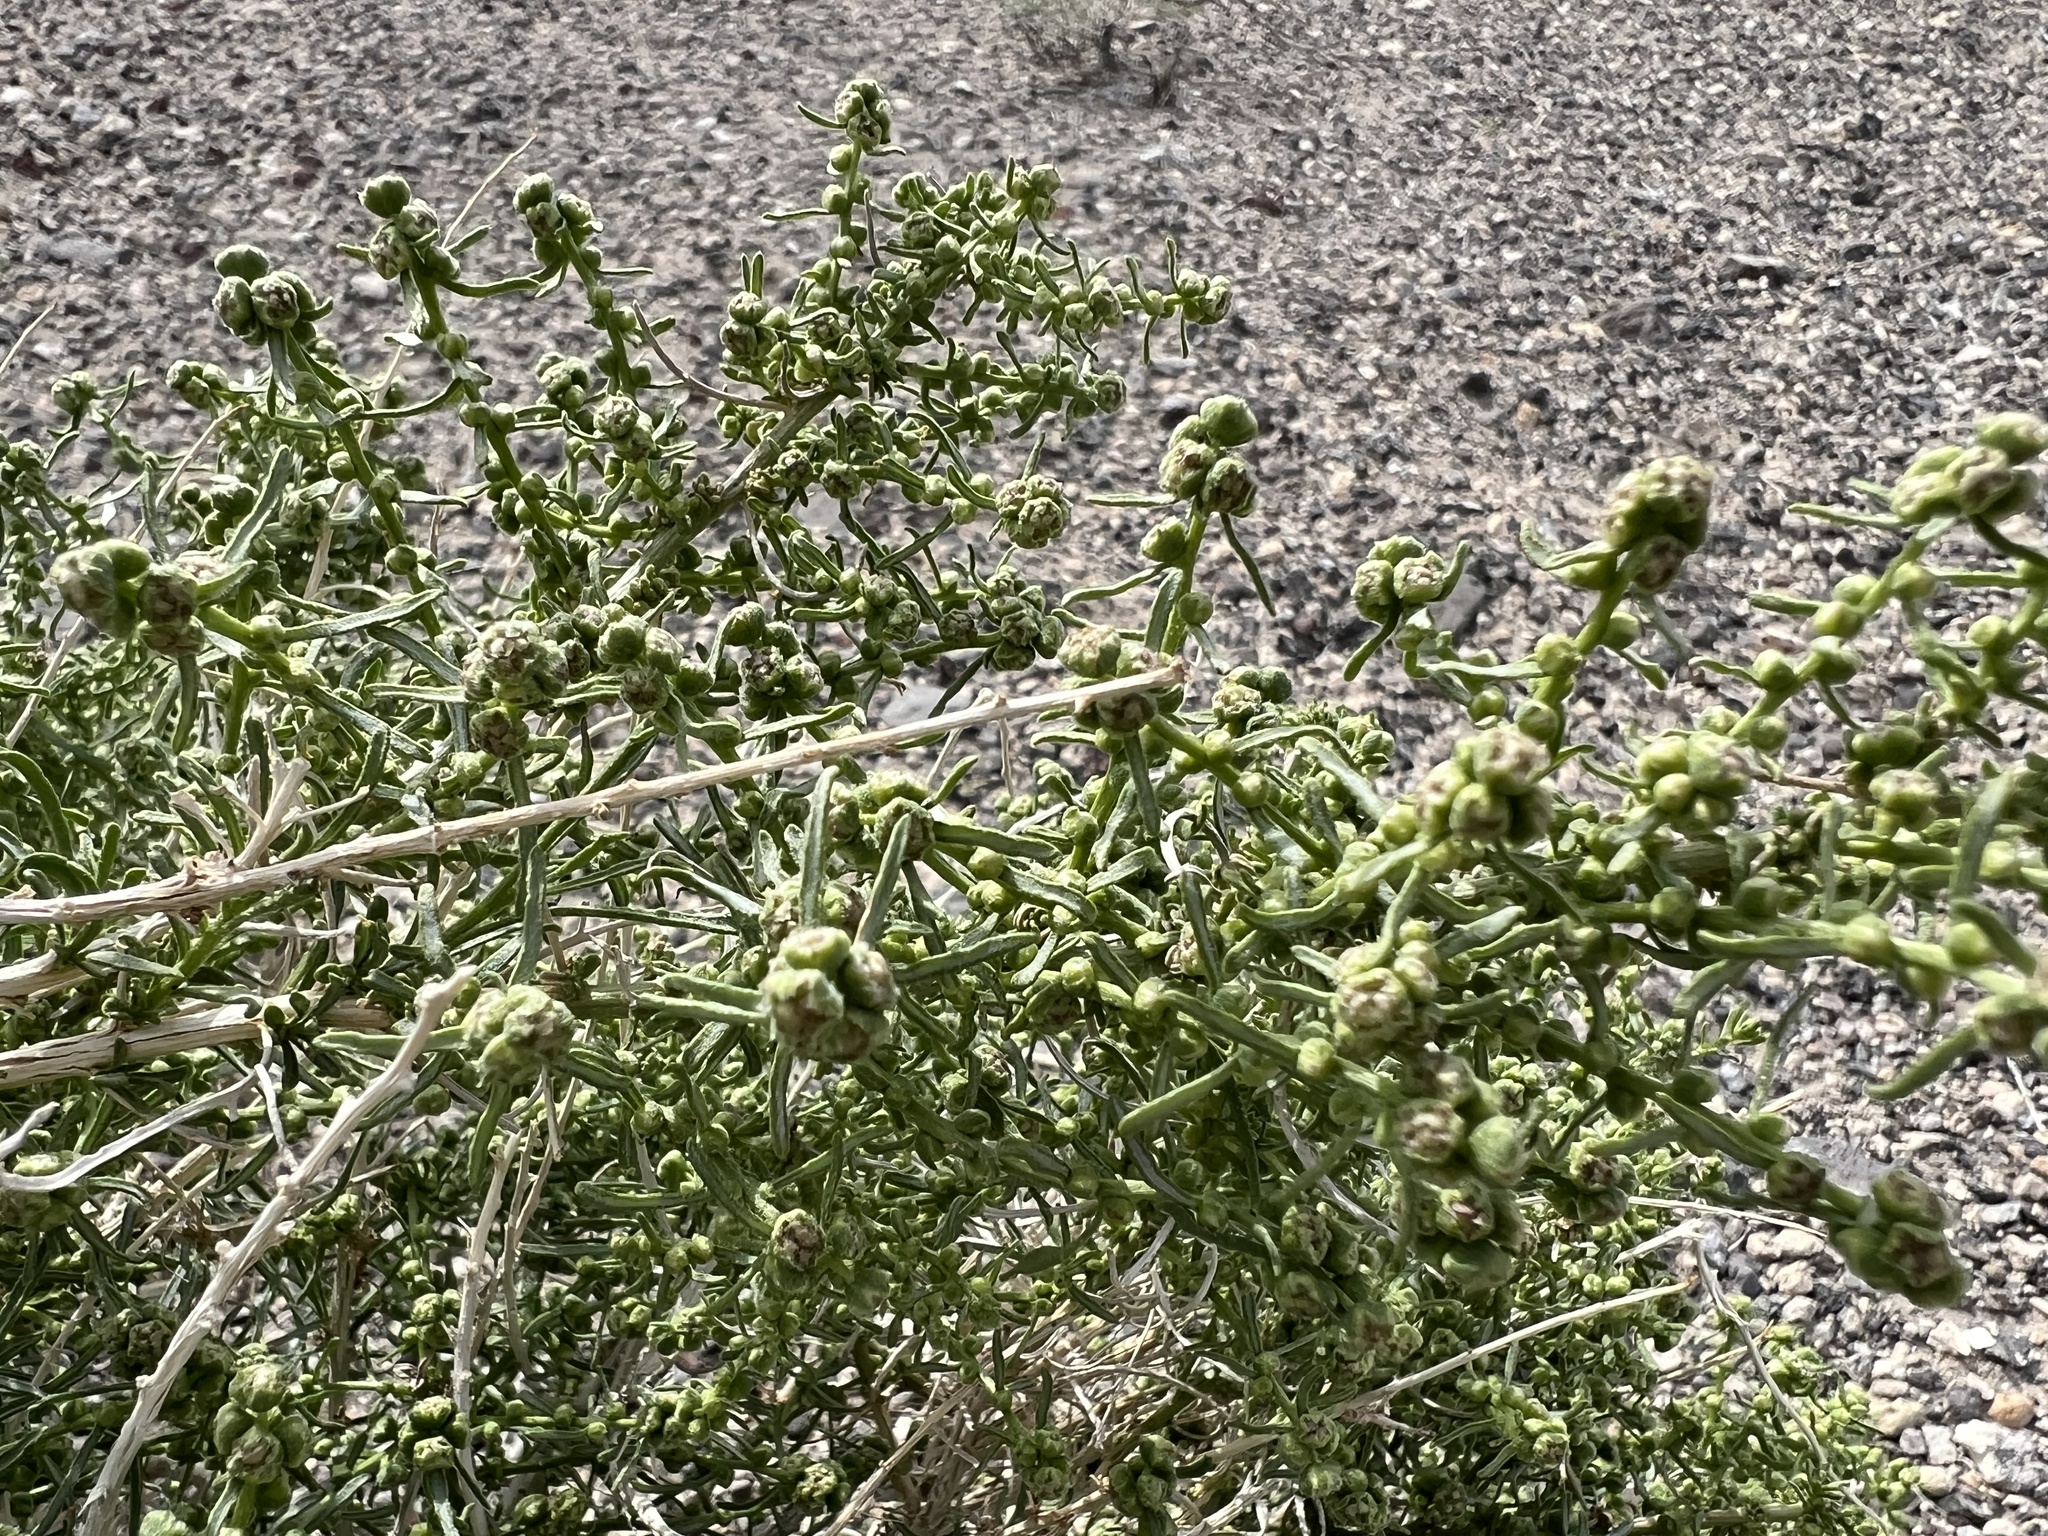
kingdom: Plantae
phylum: Tracheophyta
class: Magnoliopsida
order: Asterales
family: Asteraceae
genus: Ambrosia
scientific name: Ambrosia salsola
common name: Burrobrush
